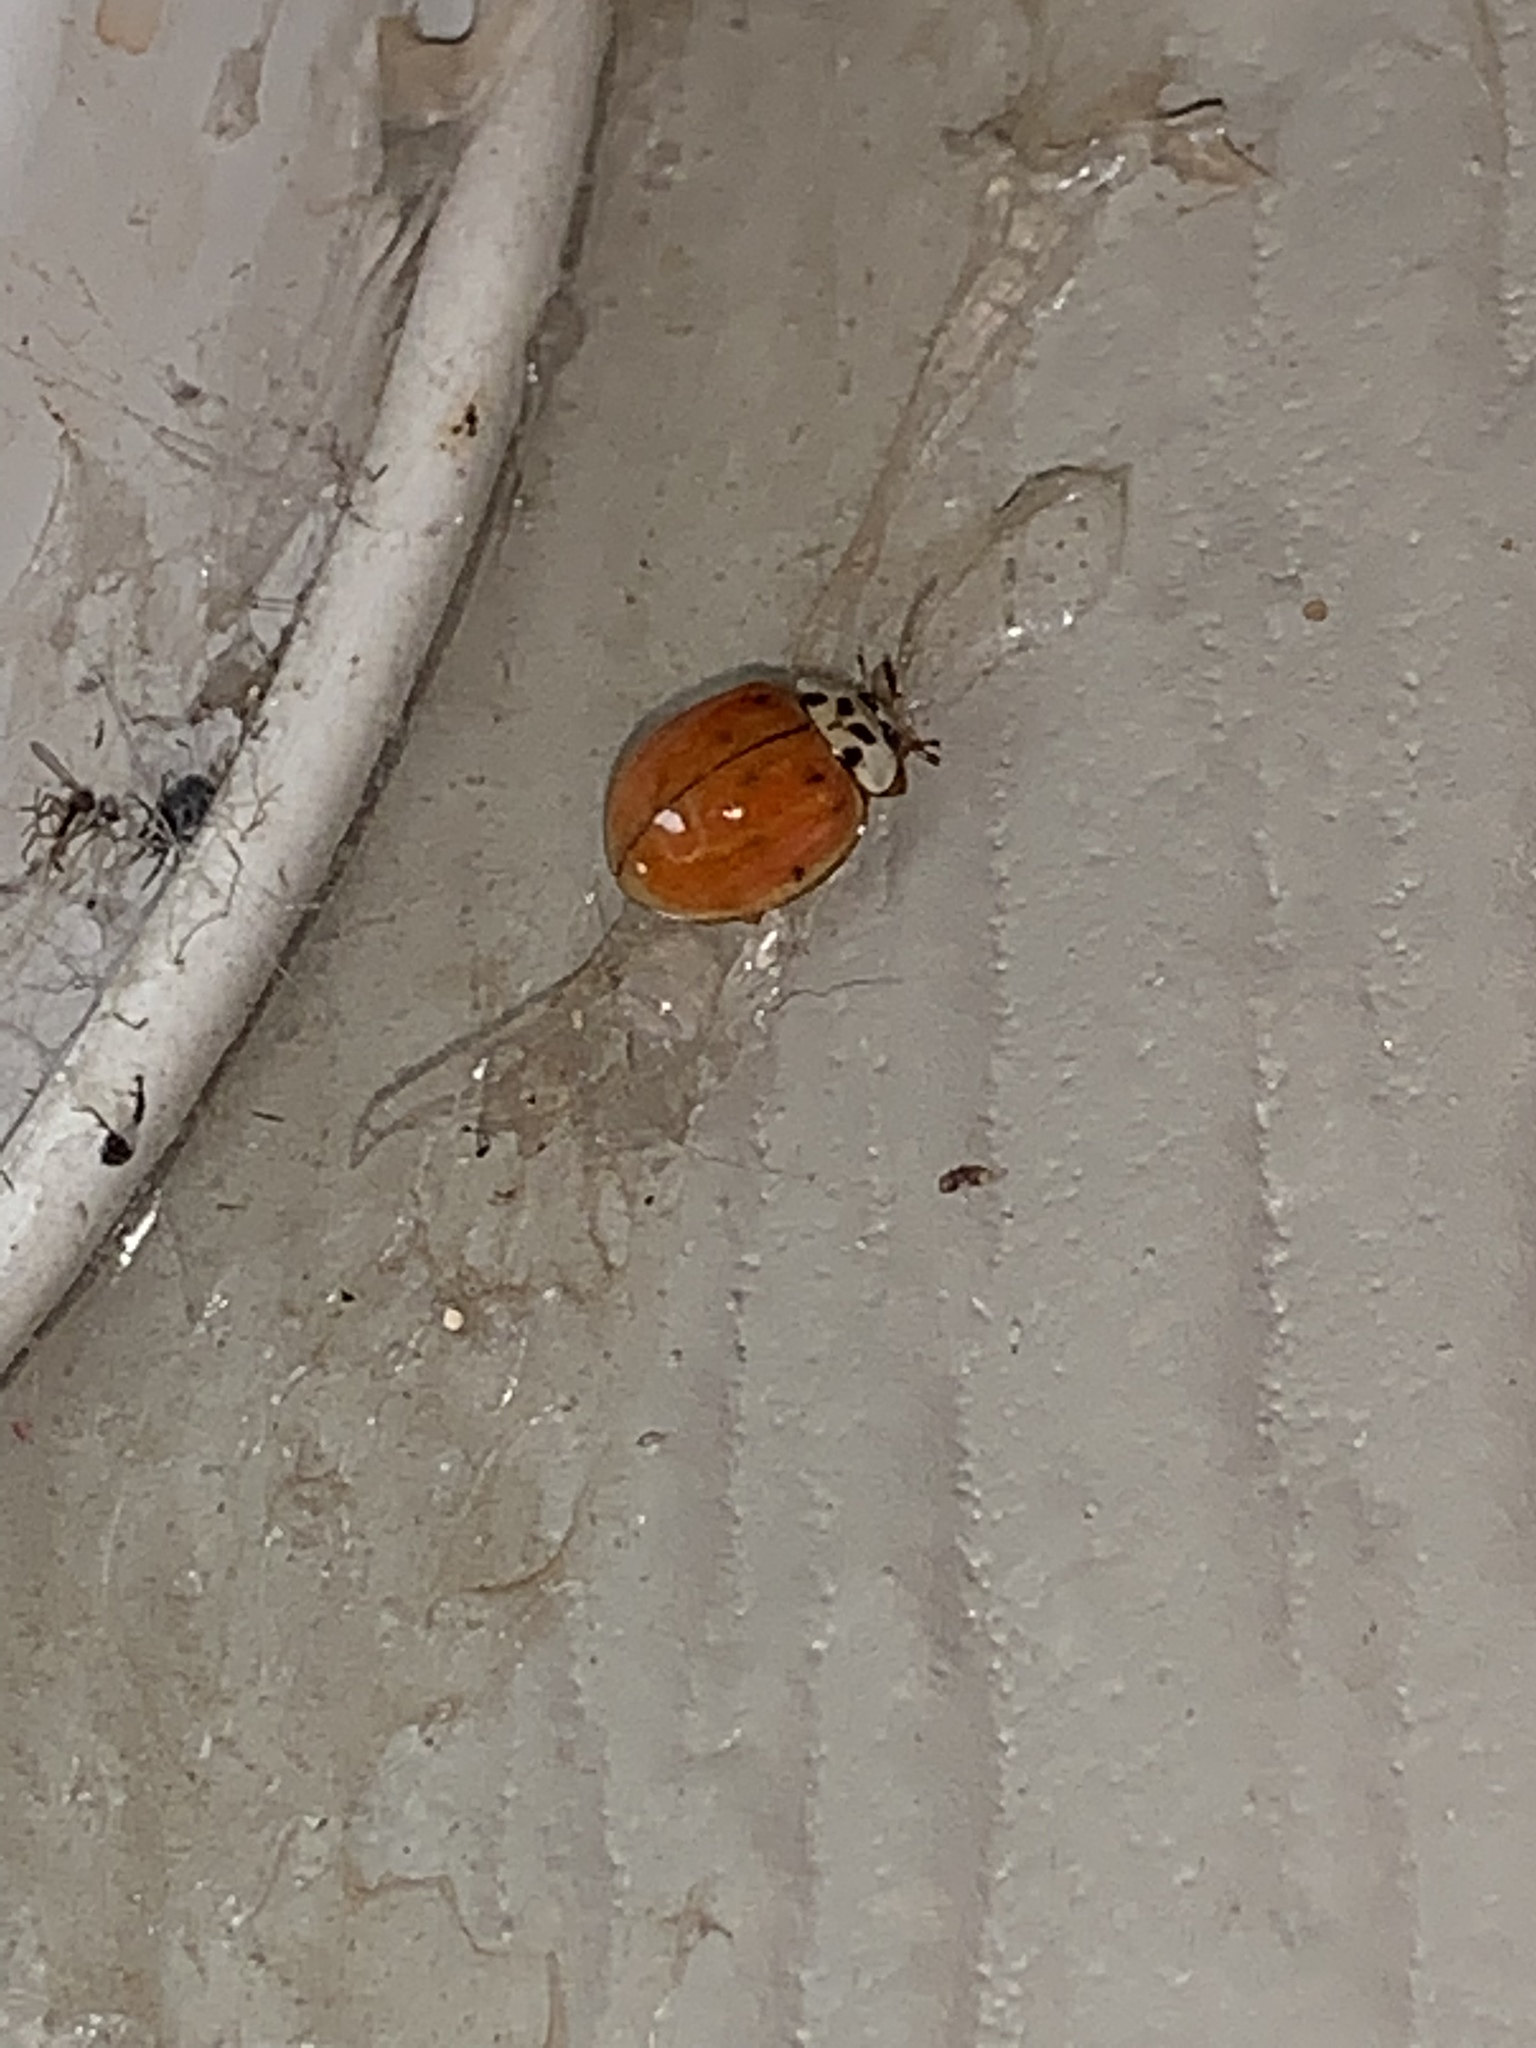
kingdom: Animalia
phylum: Arthropoda
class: Insecta
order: Coleoptera
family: Coccinellidae
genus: Harmonia
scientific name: Harmonia axyridis
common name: Harlequin ladybird
